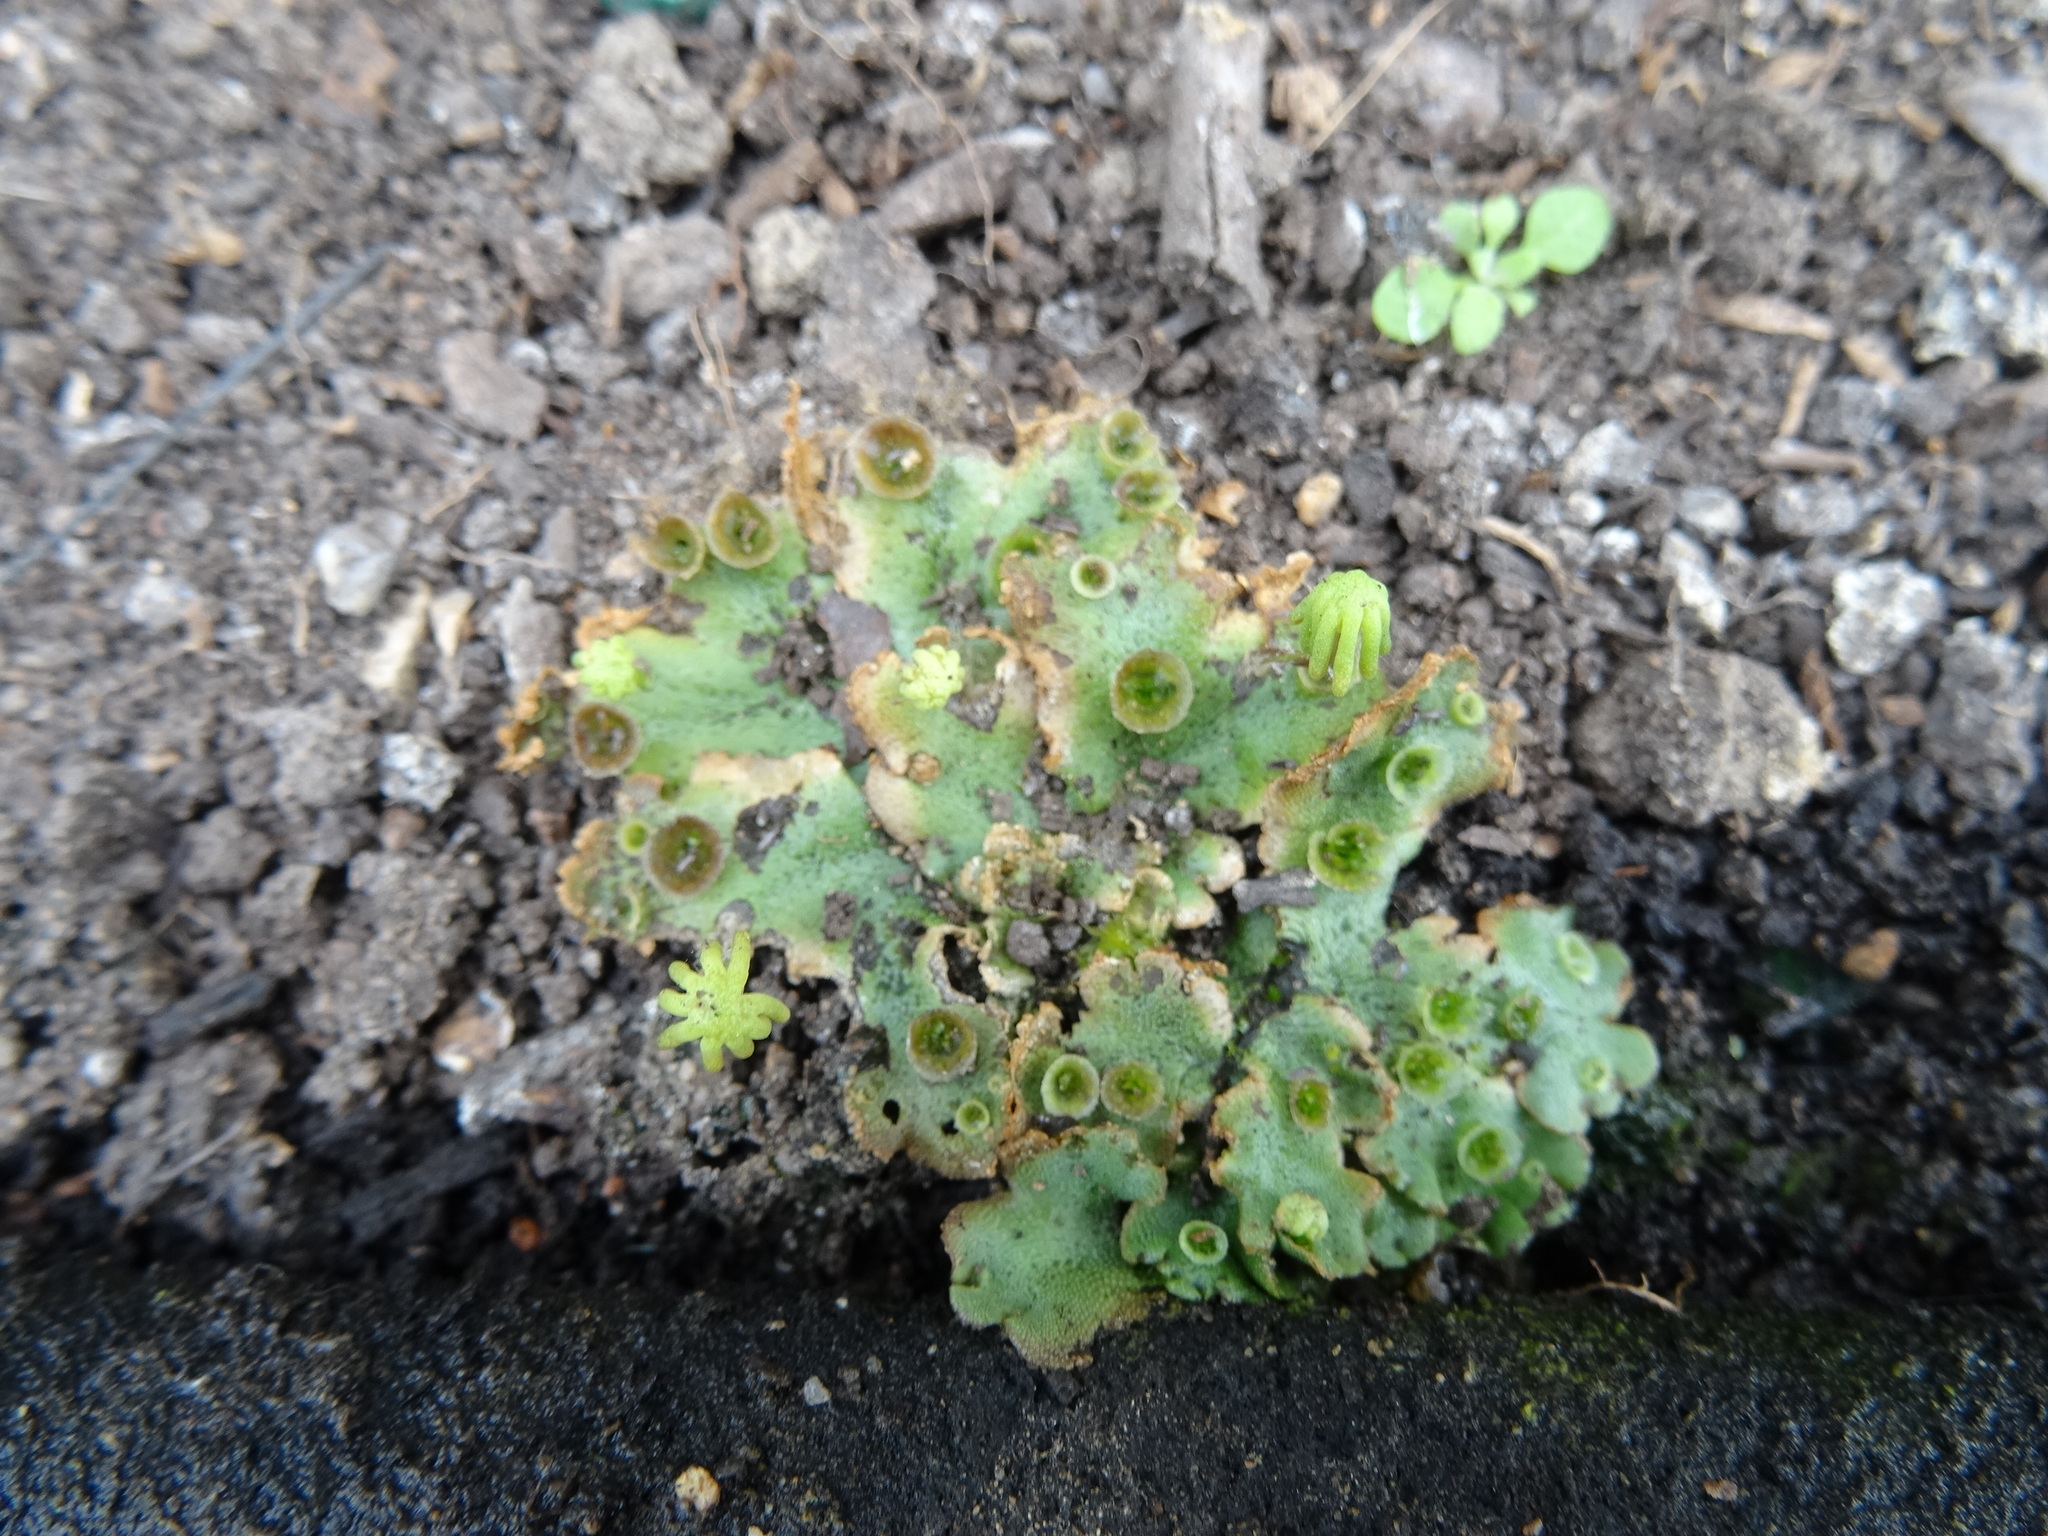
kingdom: Plantae
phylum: Marchantiophyta
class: Marchantiopsida
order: Marchantiales
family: Marchantiaceae
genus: Marchantia
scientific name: Marchantia polymorpha
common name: Common liverwort
